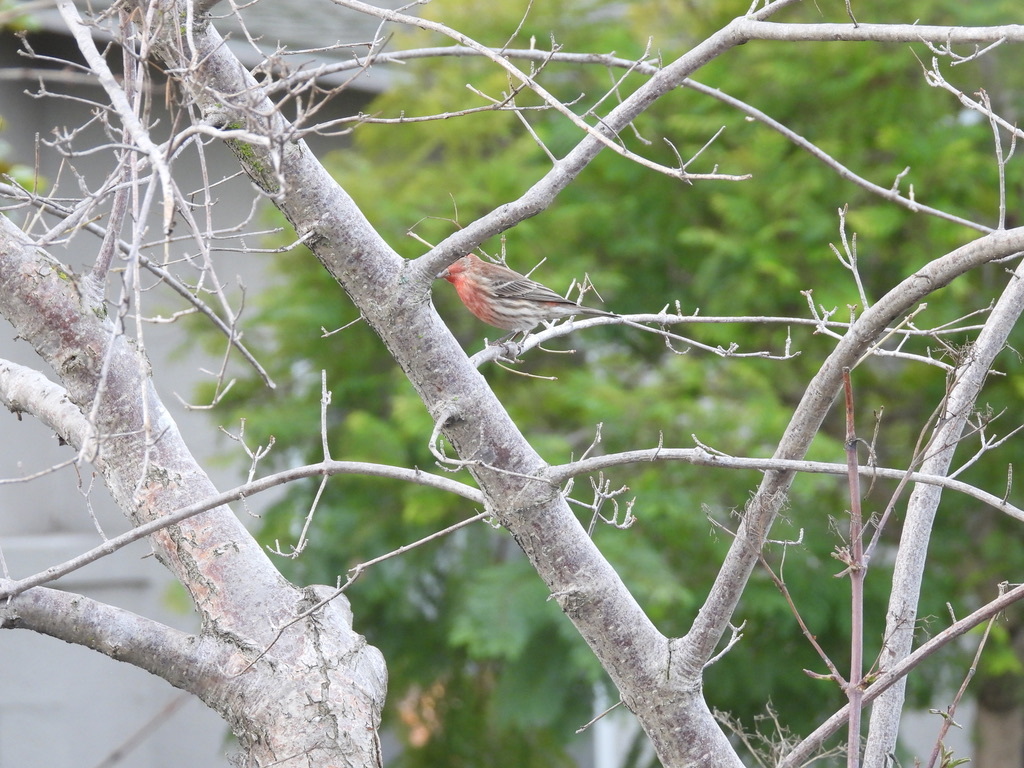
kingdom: Animalia
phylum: Chordata
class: Aves
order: Passeriformes
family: Fringillidae
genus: Haemorhous
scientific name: Haemorhous mexicanus
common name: House finch
